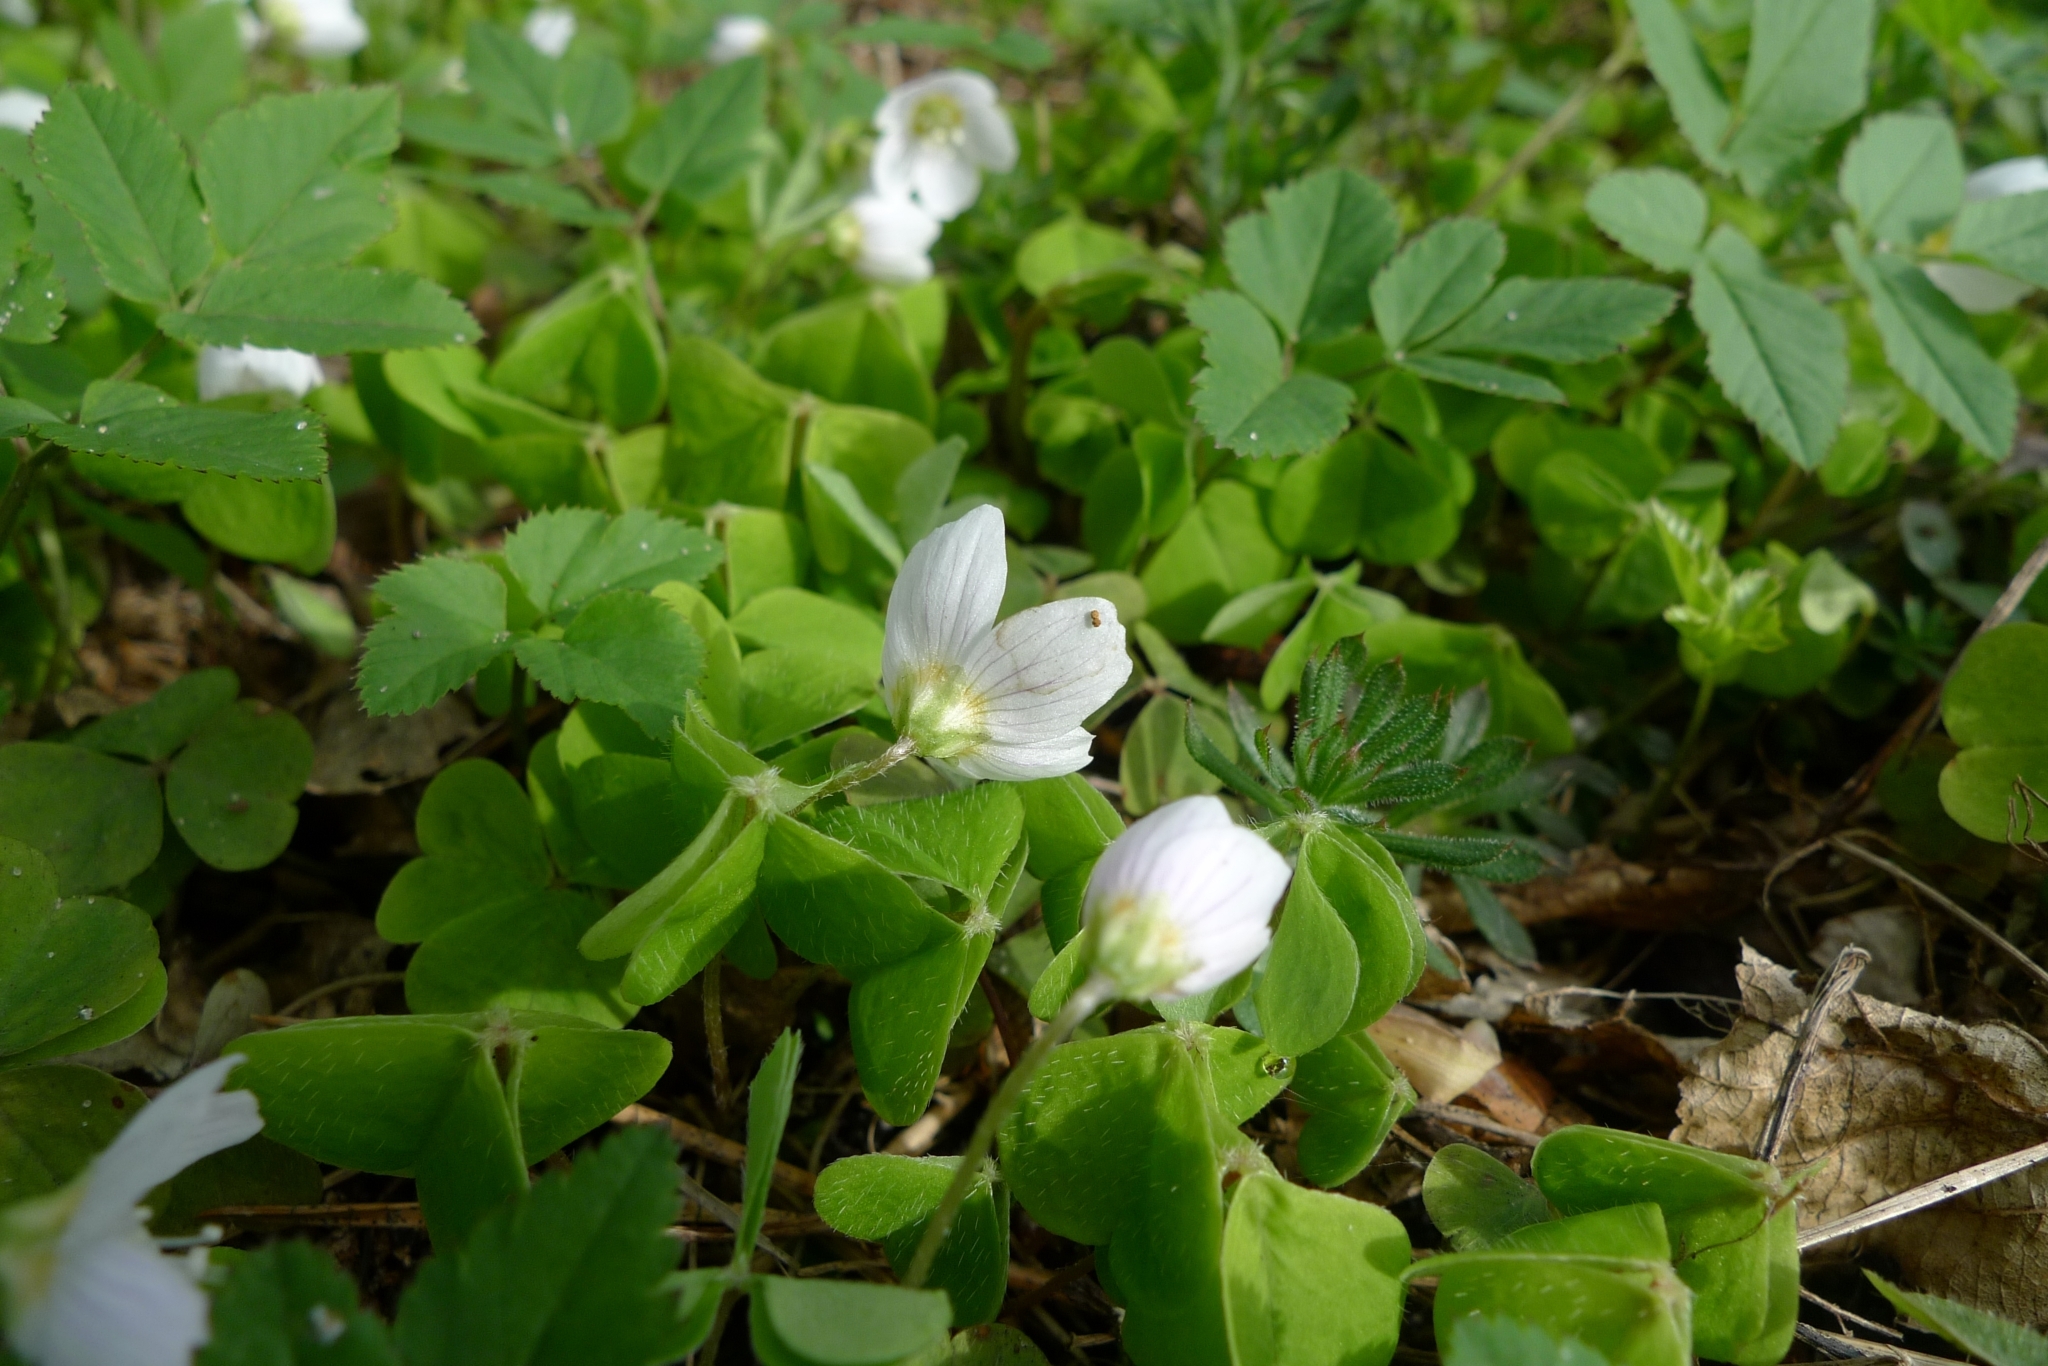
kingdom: Plantae
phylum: Tracheophyta
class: Magnoliopsida
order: Oxalidales
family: Oxalidaceae
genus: Oxalis
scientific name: Oxalis acetosella
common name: Wood-sorrel
